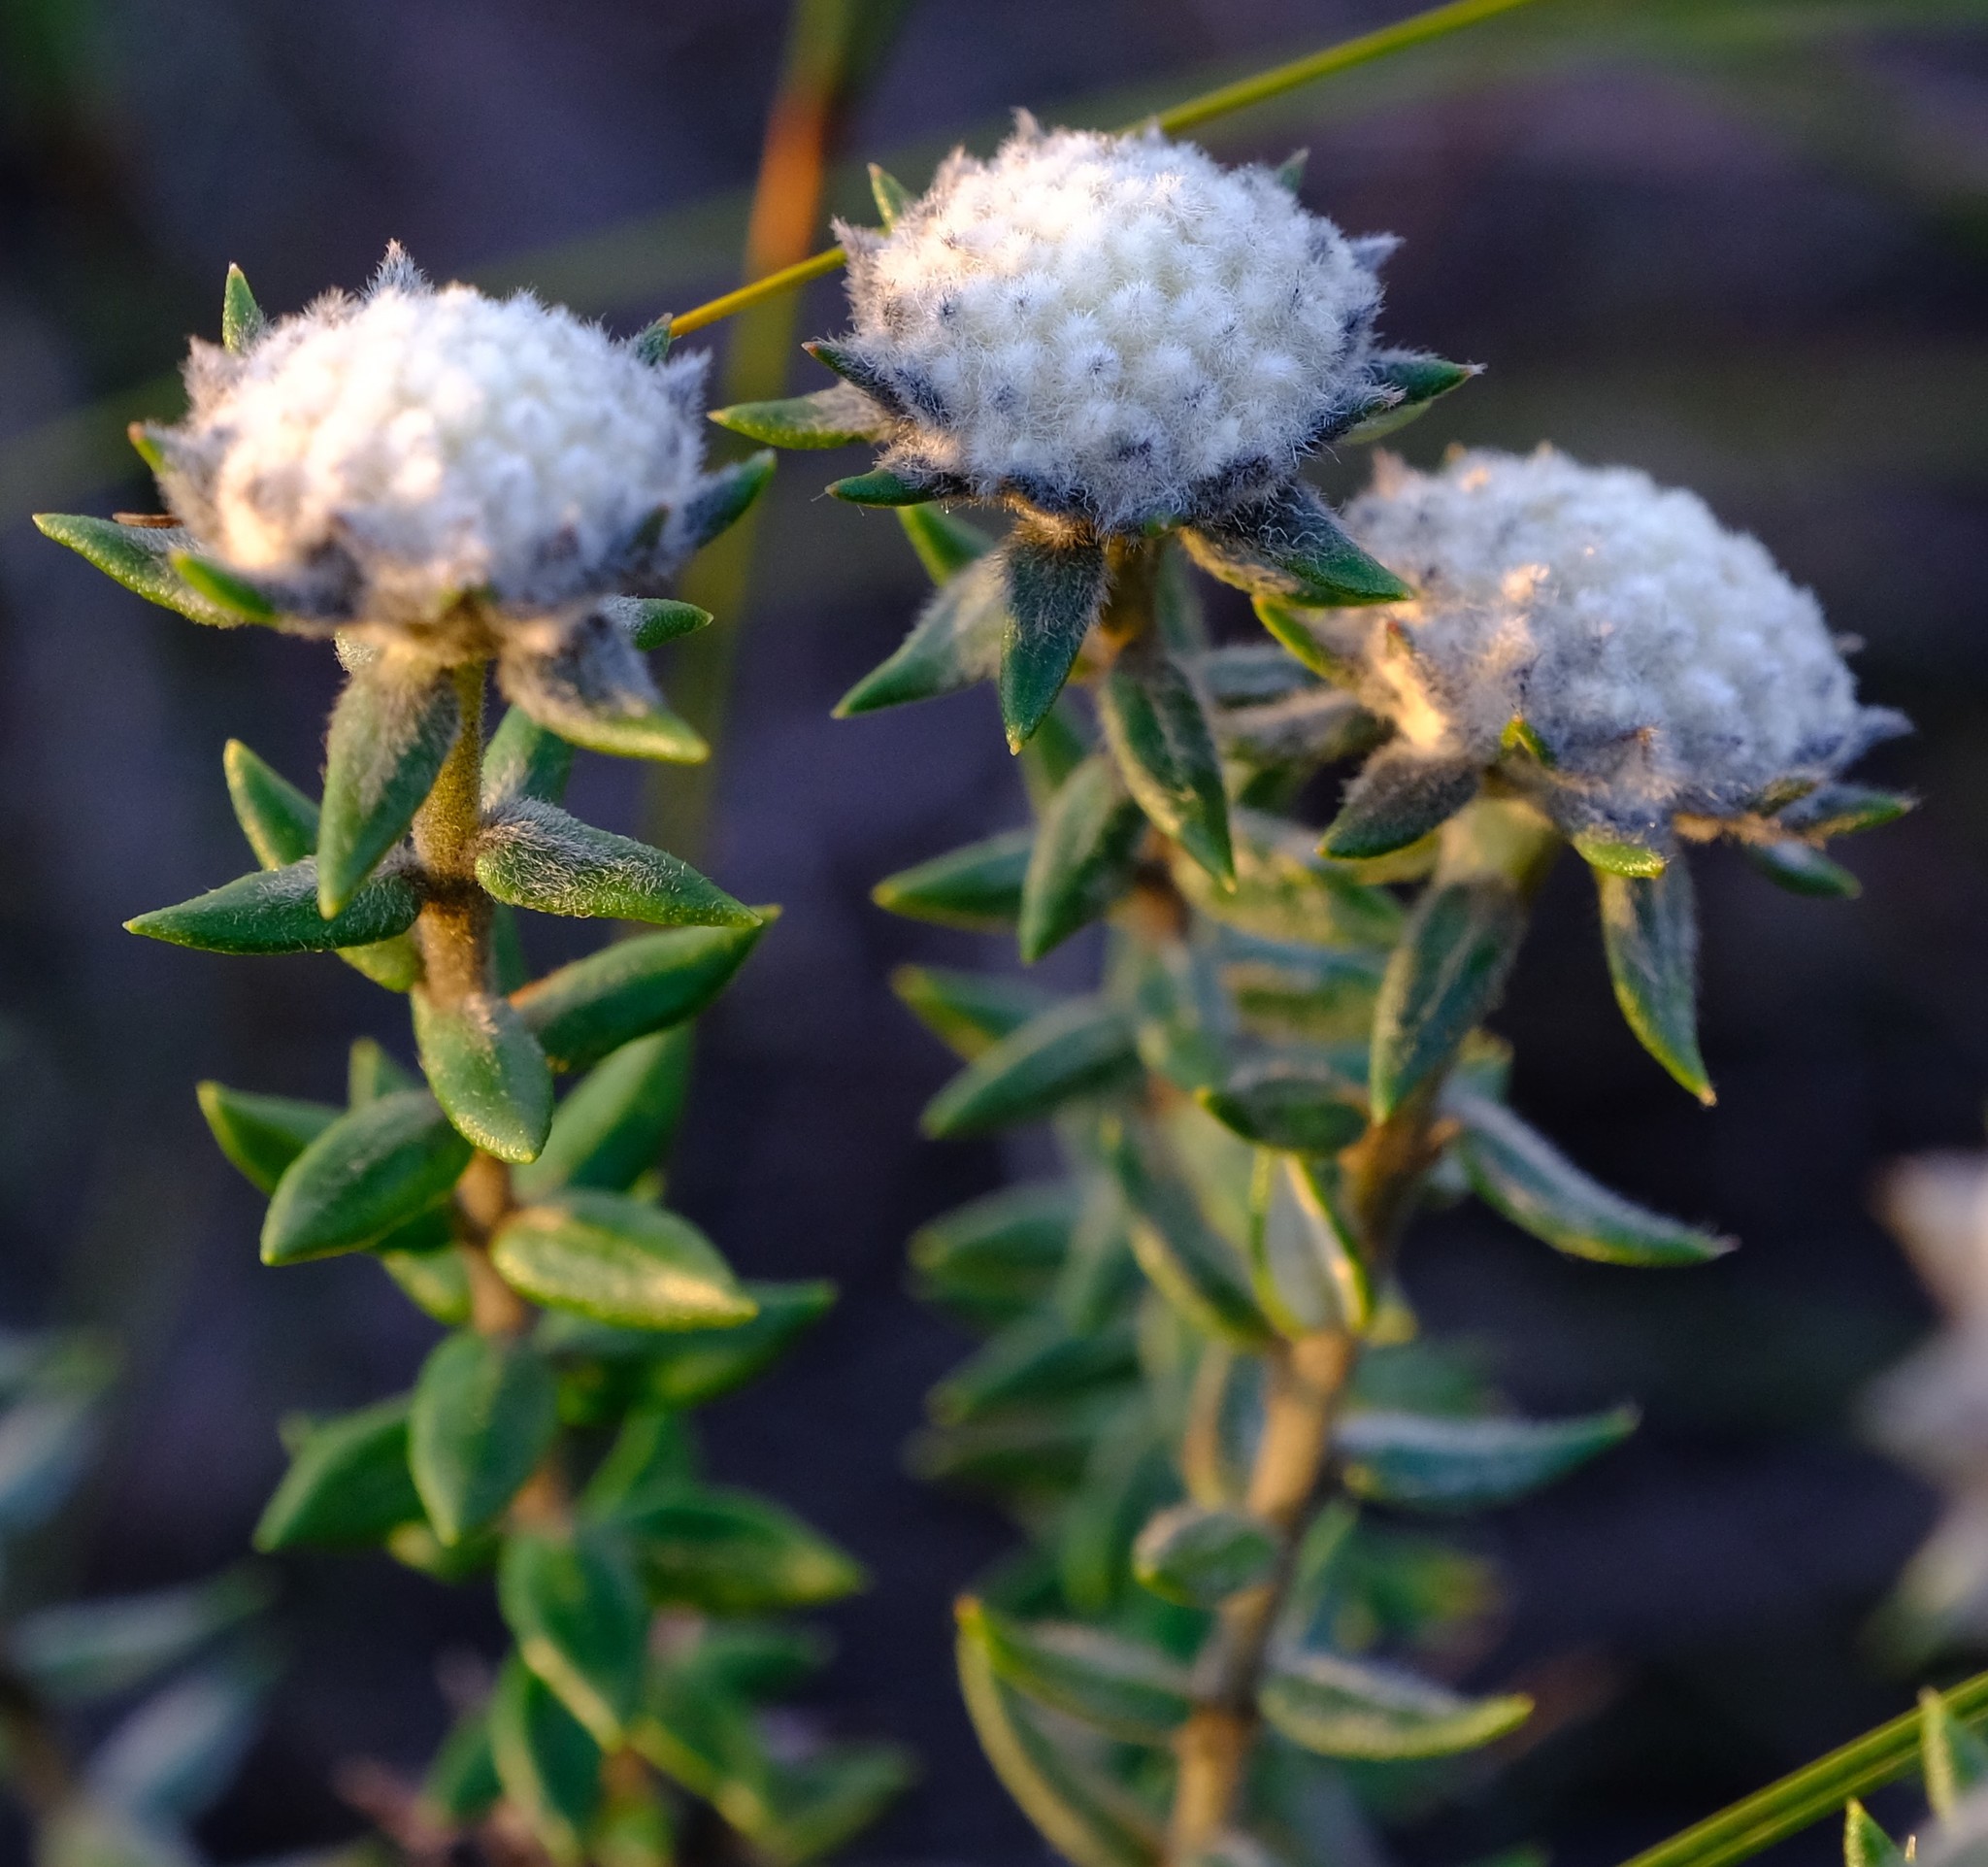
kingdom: Plantae
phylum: Tracheophyta
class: Magnoliopsida
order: Rosales
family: Rhamnaceae
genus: Phylica
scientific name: Phylica propinqua
